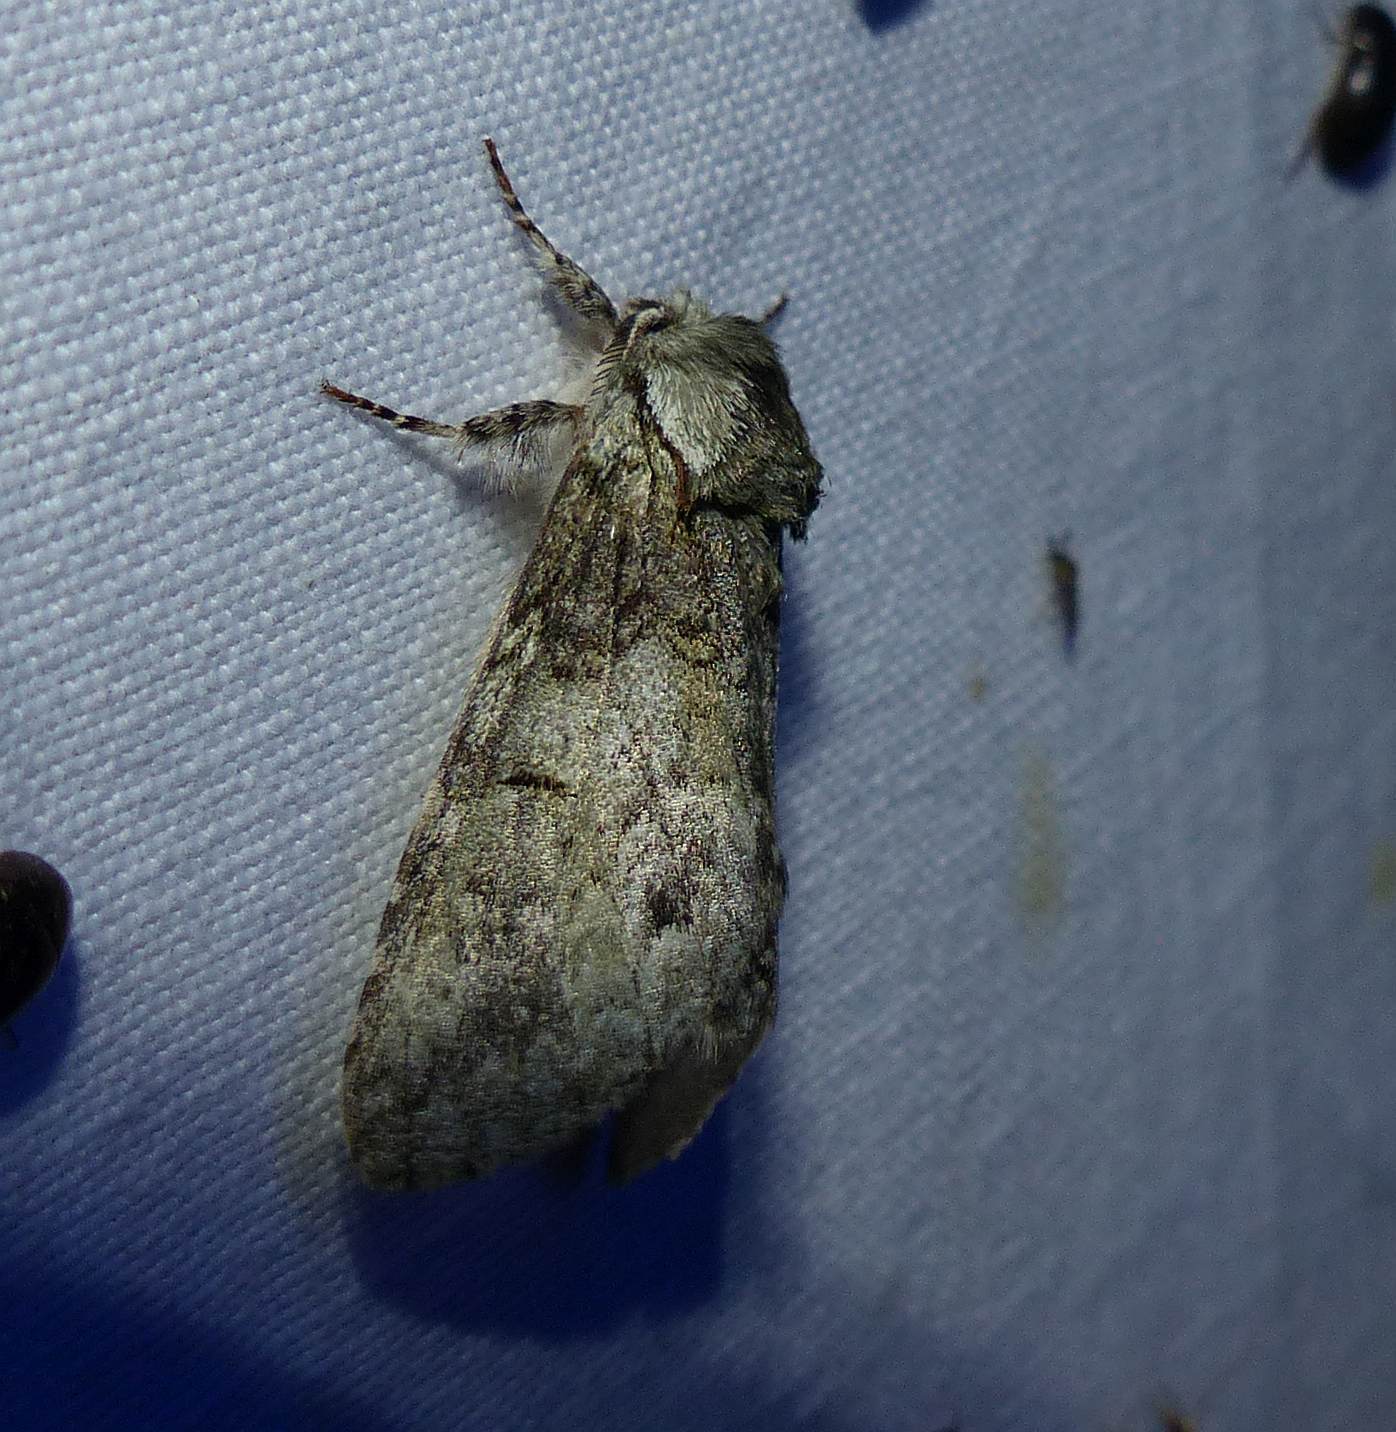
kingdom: Animalia
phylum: Arthropoda
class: Insecta
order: Lepidoptera
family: Notodontidae
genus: Macrurocampa
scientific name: Macrurocampa marthesia
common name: Mottled prominent
